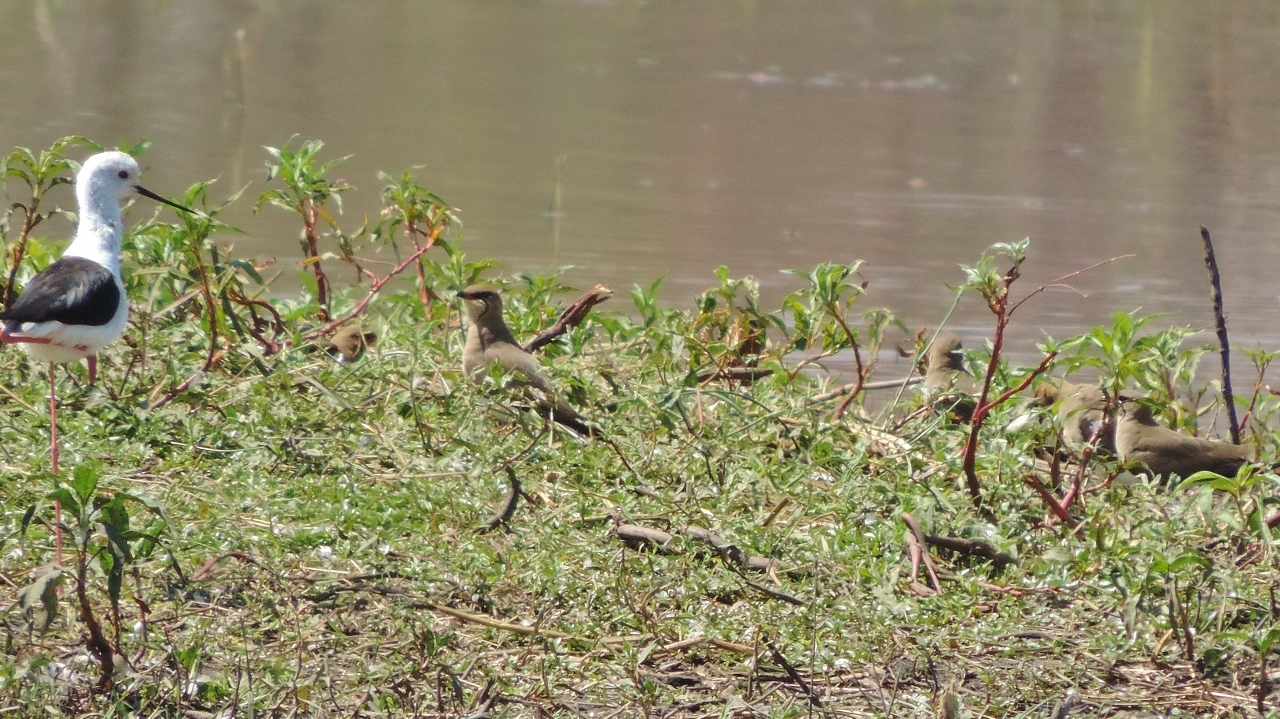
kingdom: Animalia
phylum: Chordata
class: Aves
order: Charadriiformes
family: Glareolidae
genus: Glareola
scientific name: Glareola pratincola
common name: Collared pratincole
